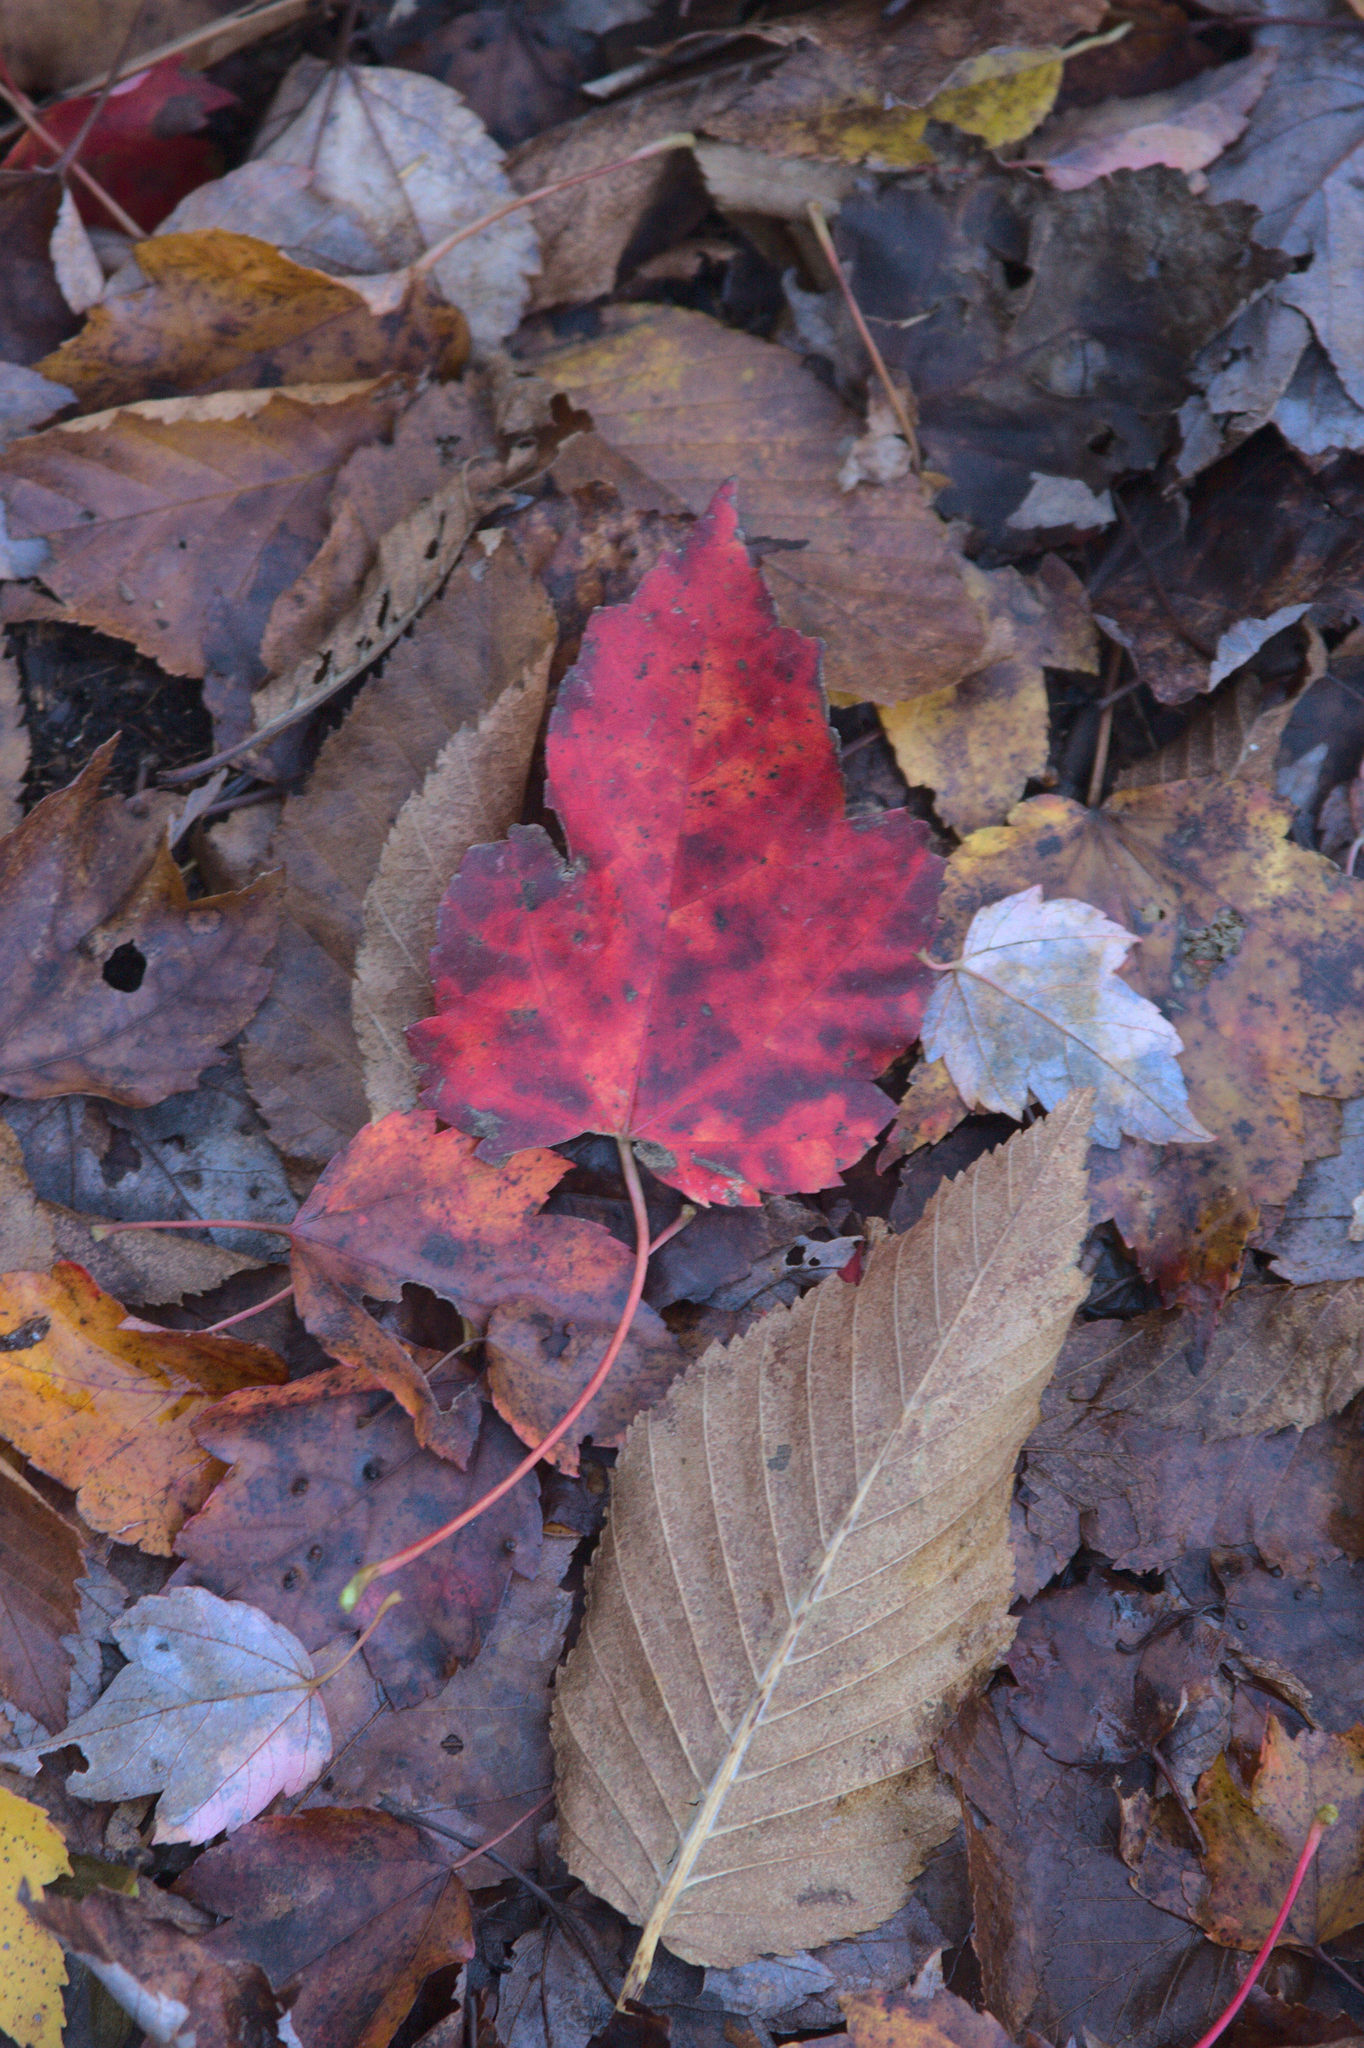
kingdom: Plantae
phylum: Tracheophyta
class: Magnoliopsida
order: Sapindales
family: Sapindaceae
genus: Acer
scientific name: Acer rubrum
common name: Red maple
